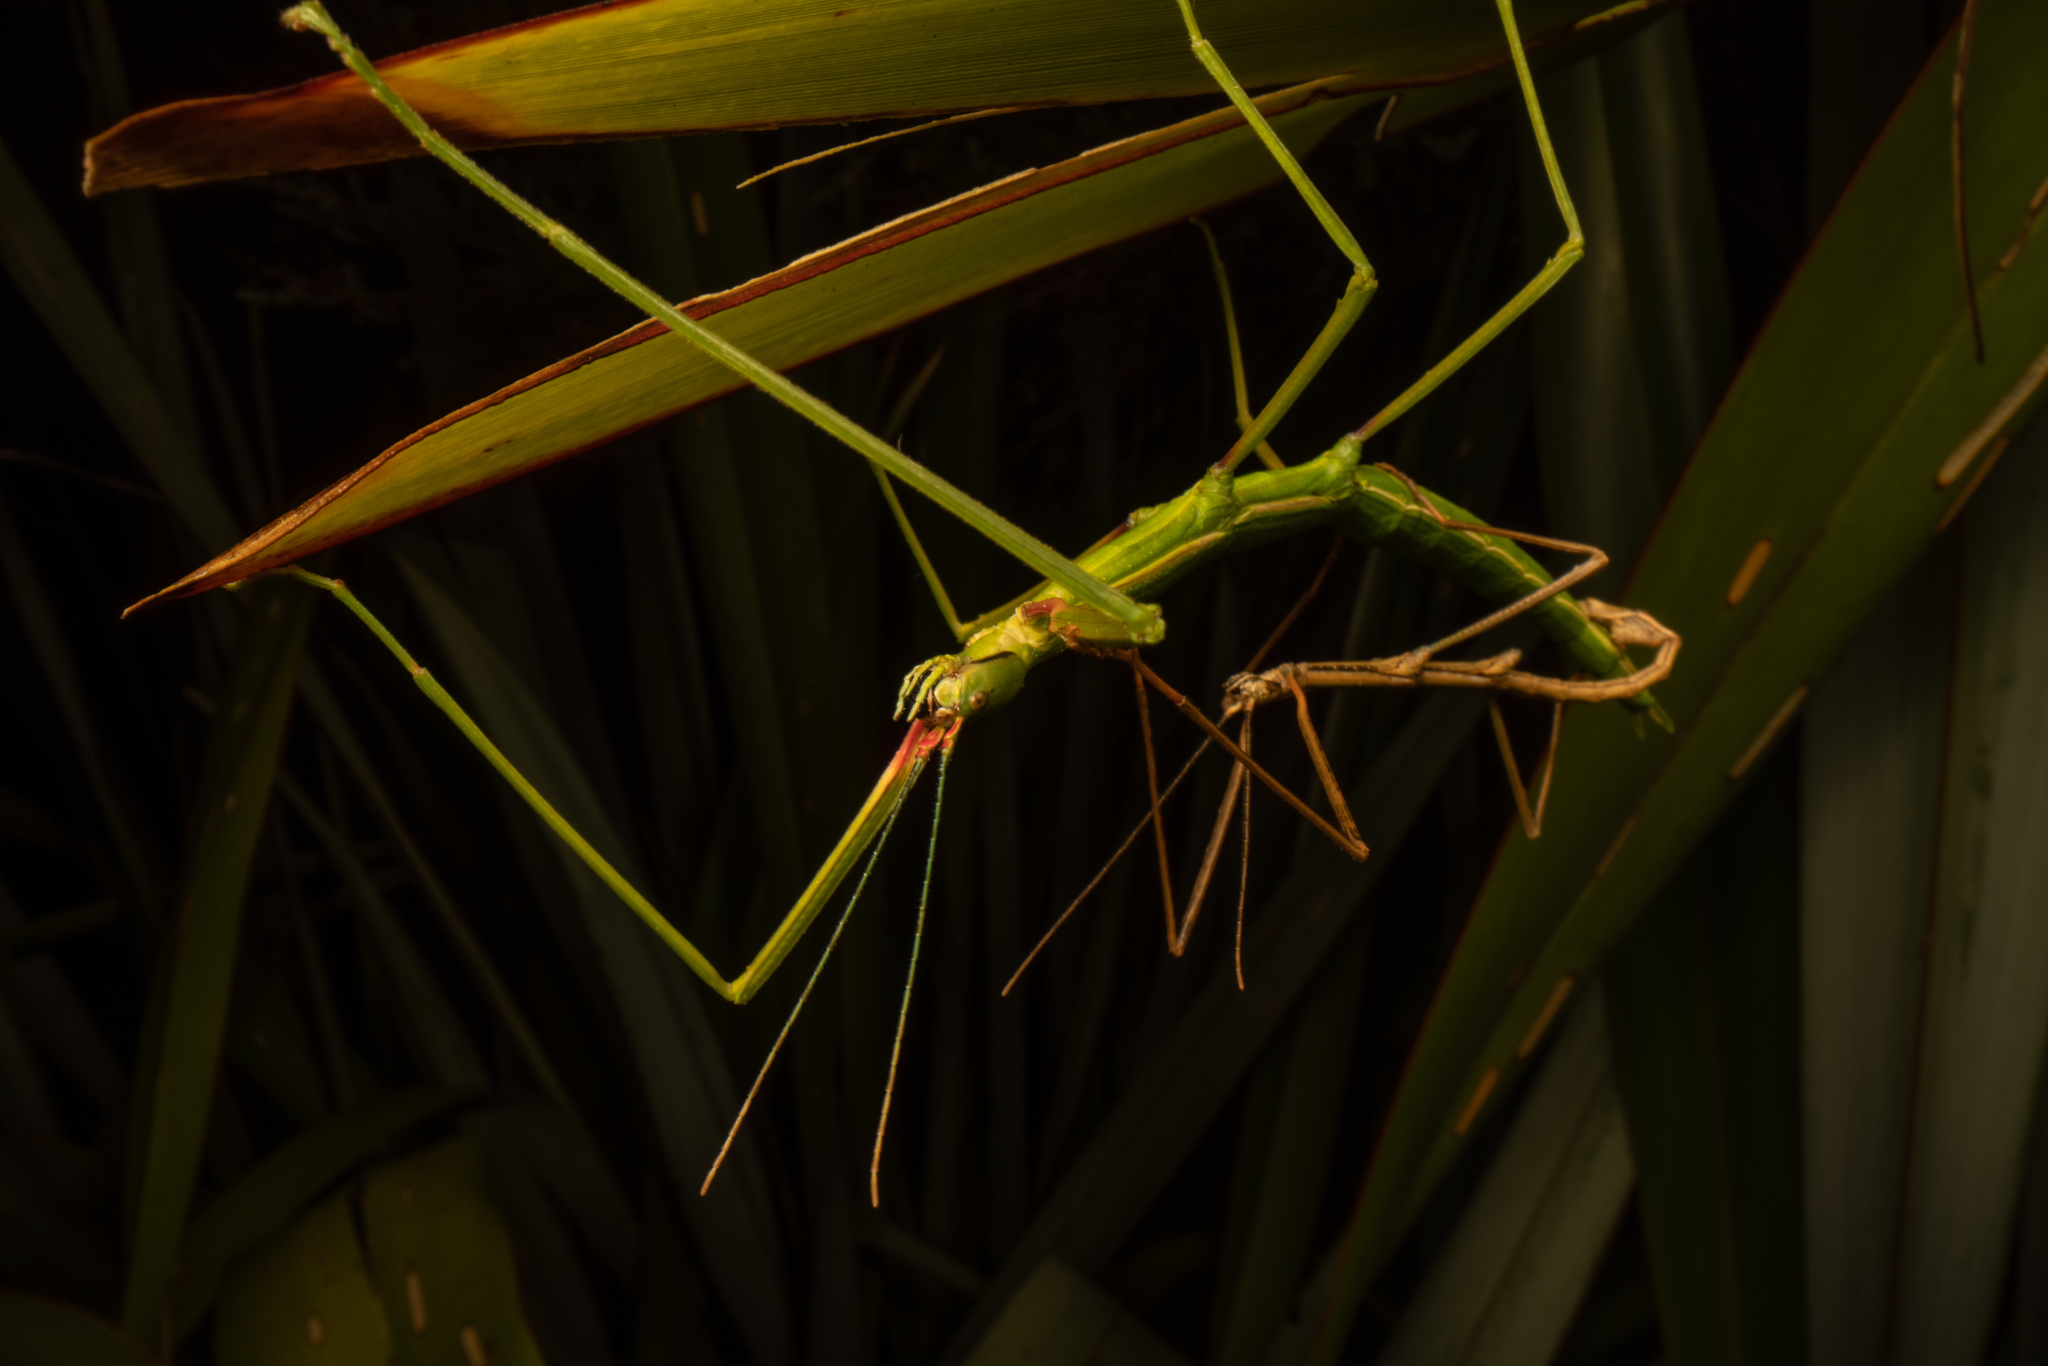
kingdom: Animalia
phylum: Arthropoda
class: Insecta
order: Phasmida
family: Phasmatidae
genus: Clitarchus
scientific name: Clitarchus hookeri
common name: Smooth stick insect
